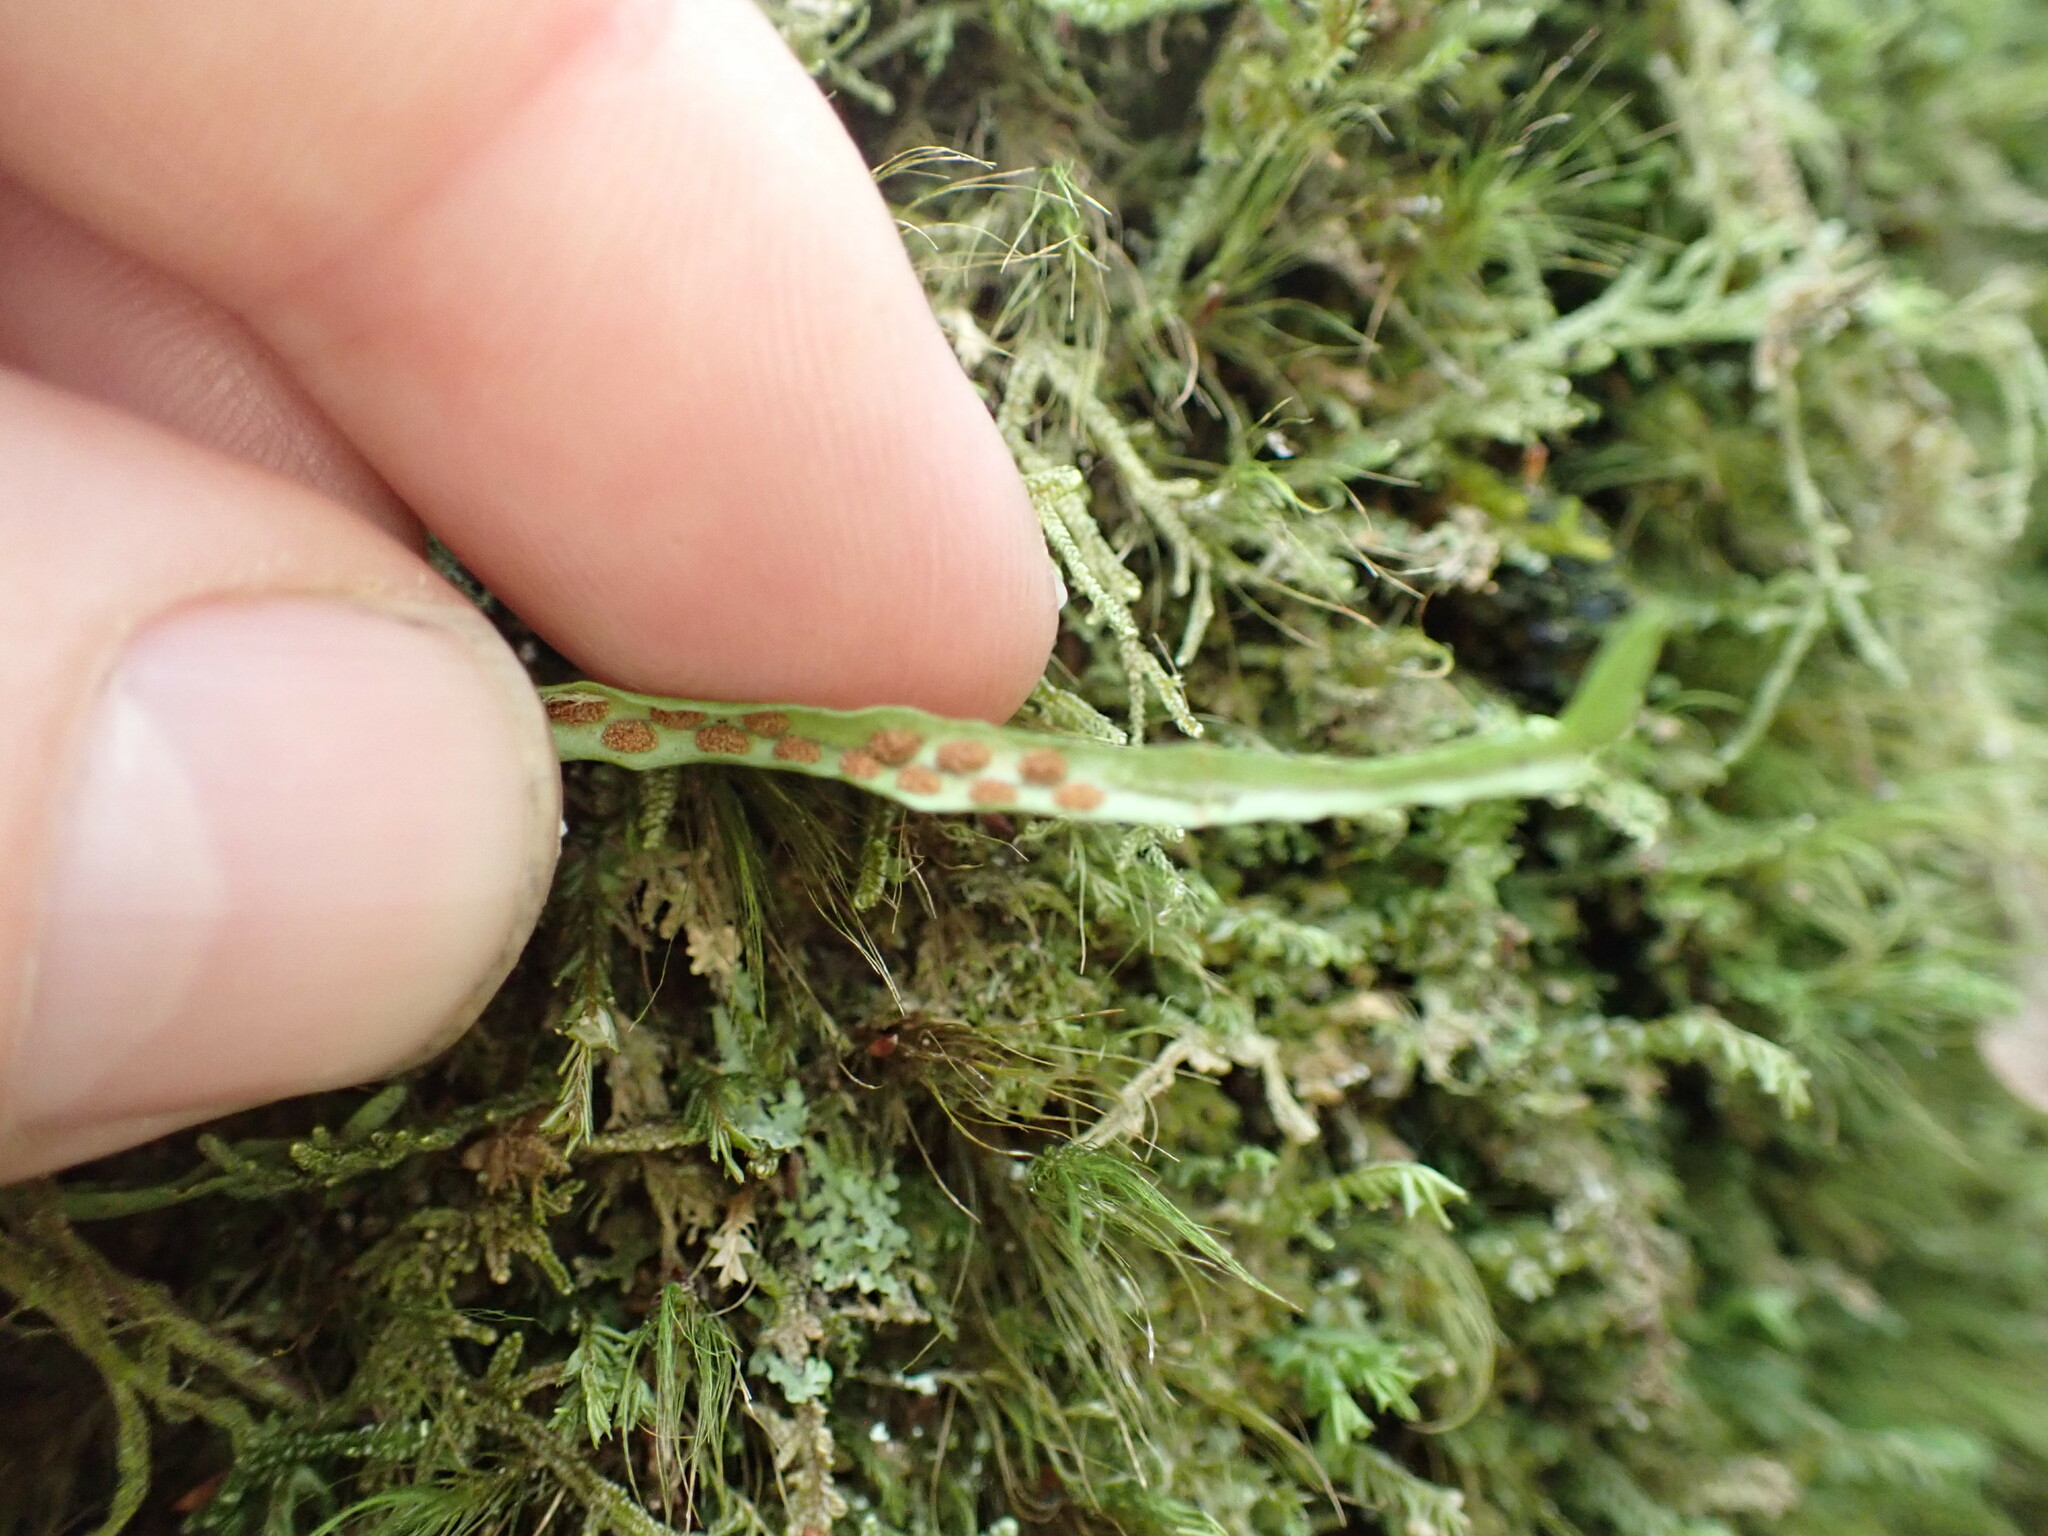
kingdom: Plantae
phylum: Tracheophyta
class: Polypodiopsida
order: Polypodiales
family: Polypodiaceae
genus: Notogrammitis
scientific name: Notogrammitis angustifolia
